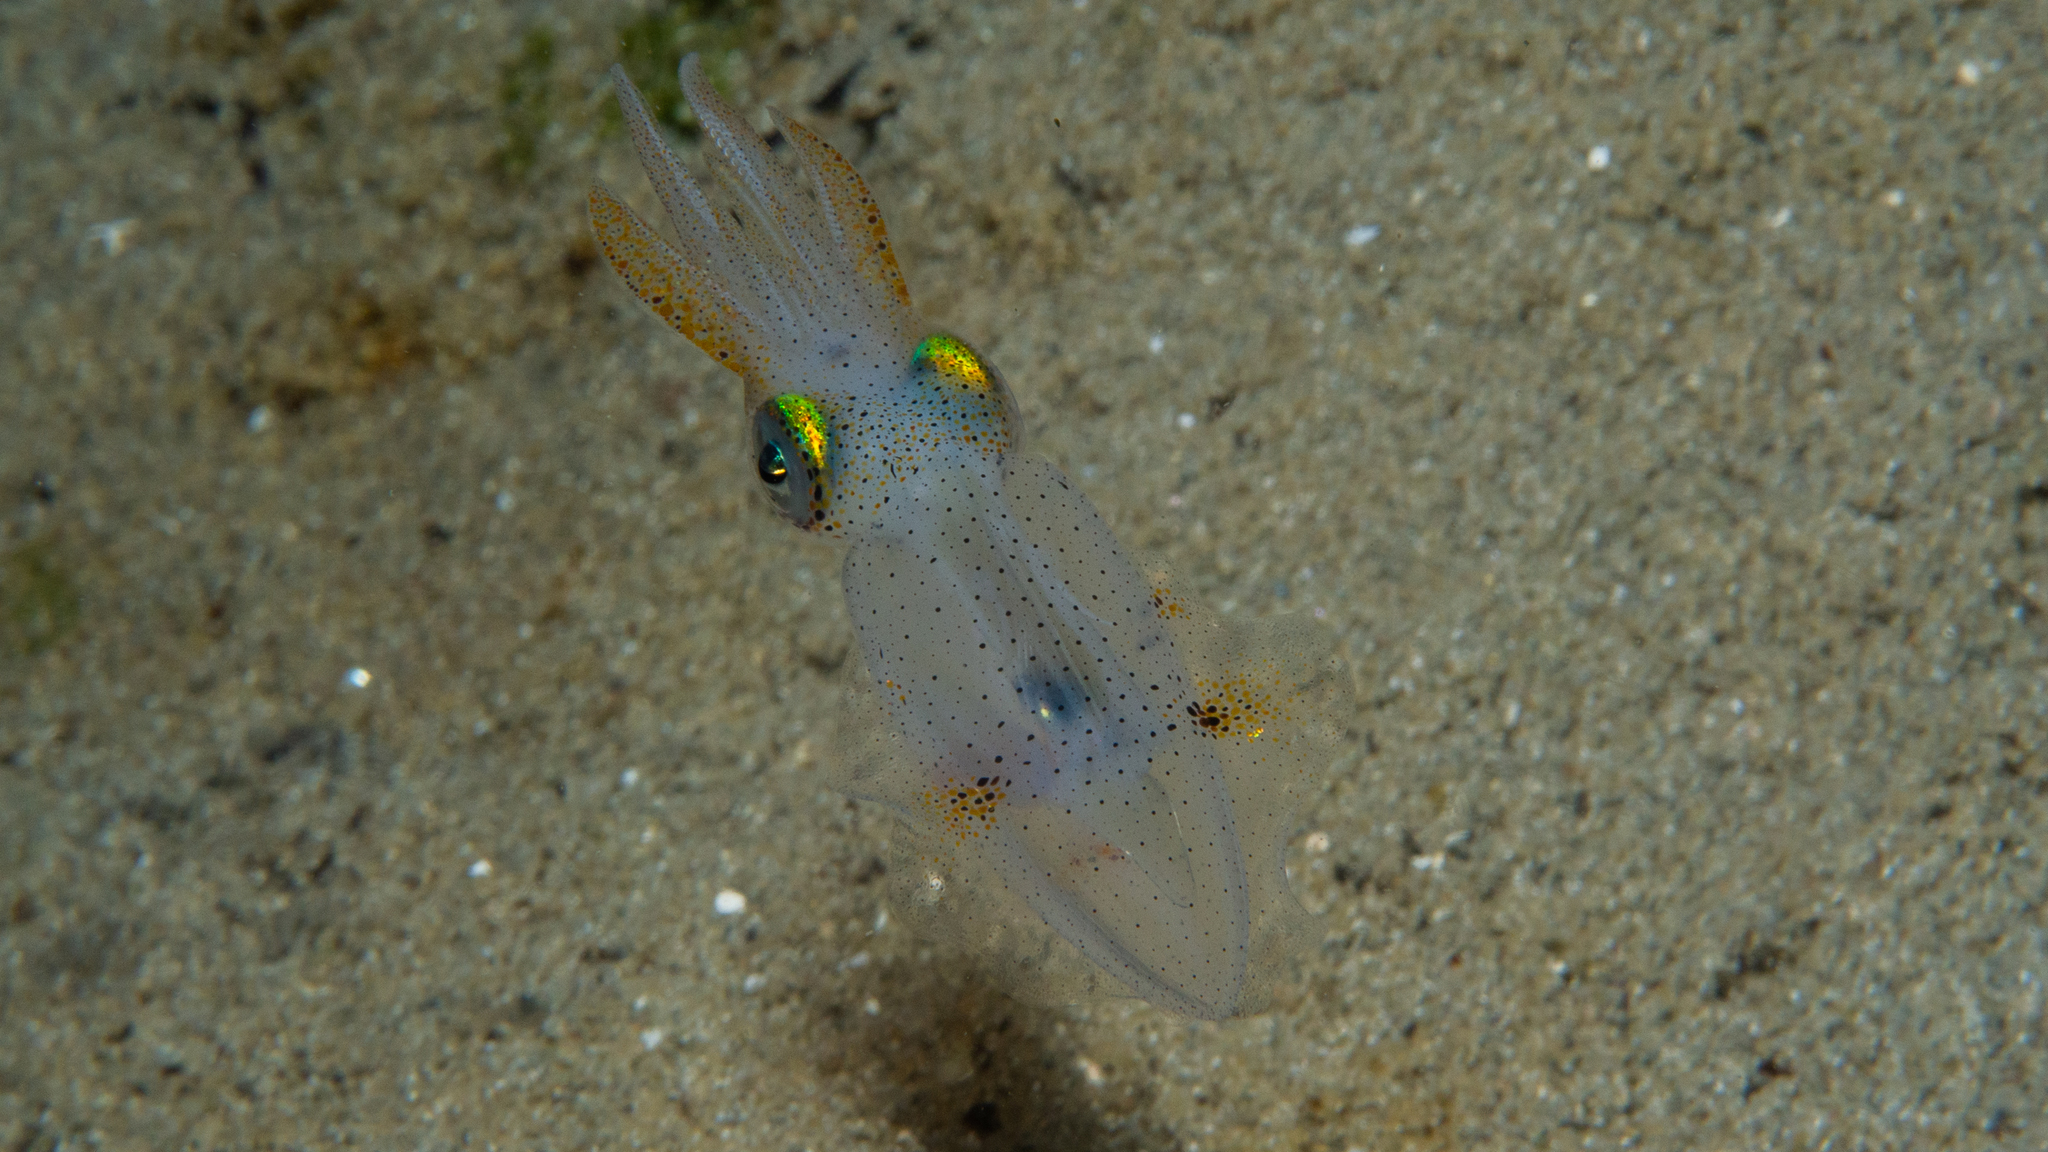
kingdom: Animalia
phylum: Mollusca
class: Cephalopoda
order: Myopsida
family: Loliginidae
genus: Sepioteuthis
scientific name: Sepioteuthis australis
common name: Southern reef squid
